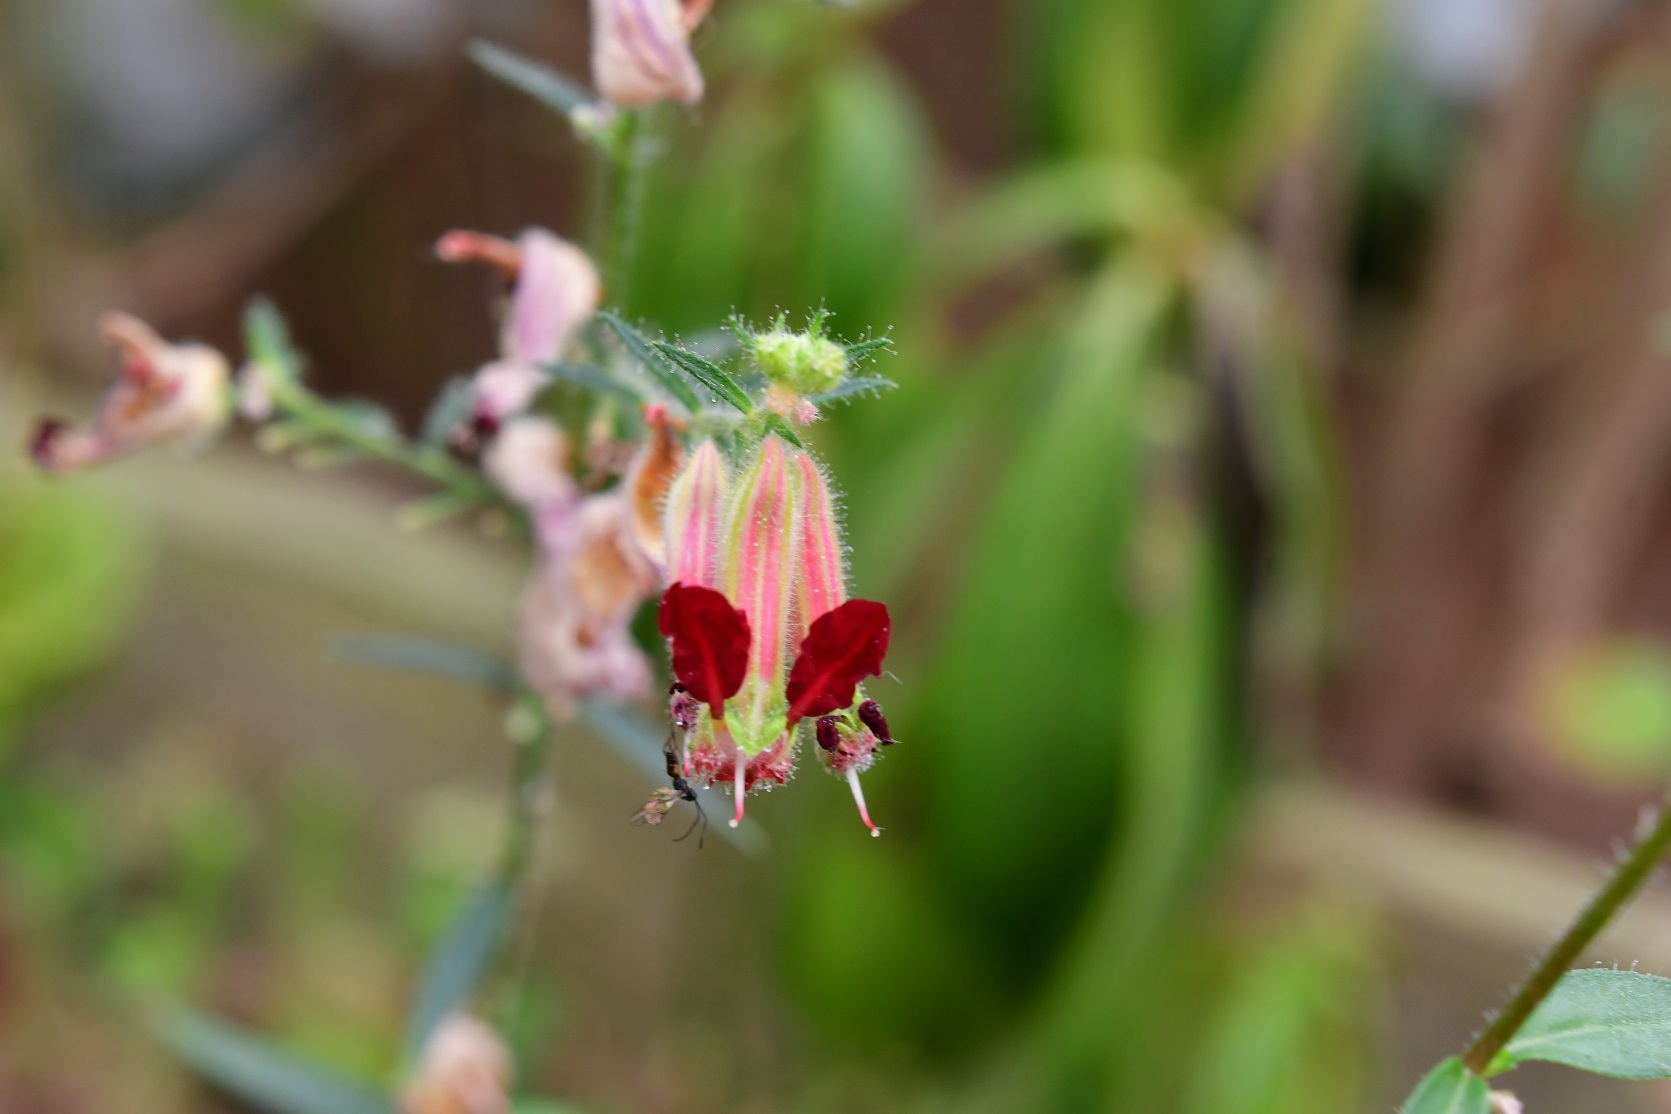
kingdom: Plantae
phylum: Tracheophyta
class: Magnoliopsida
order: Myrtales
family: Lythraceae
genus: Cuphea
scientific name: Cuphea hookeriana
